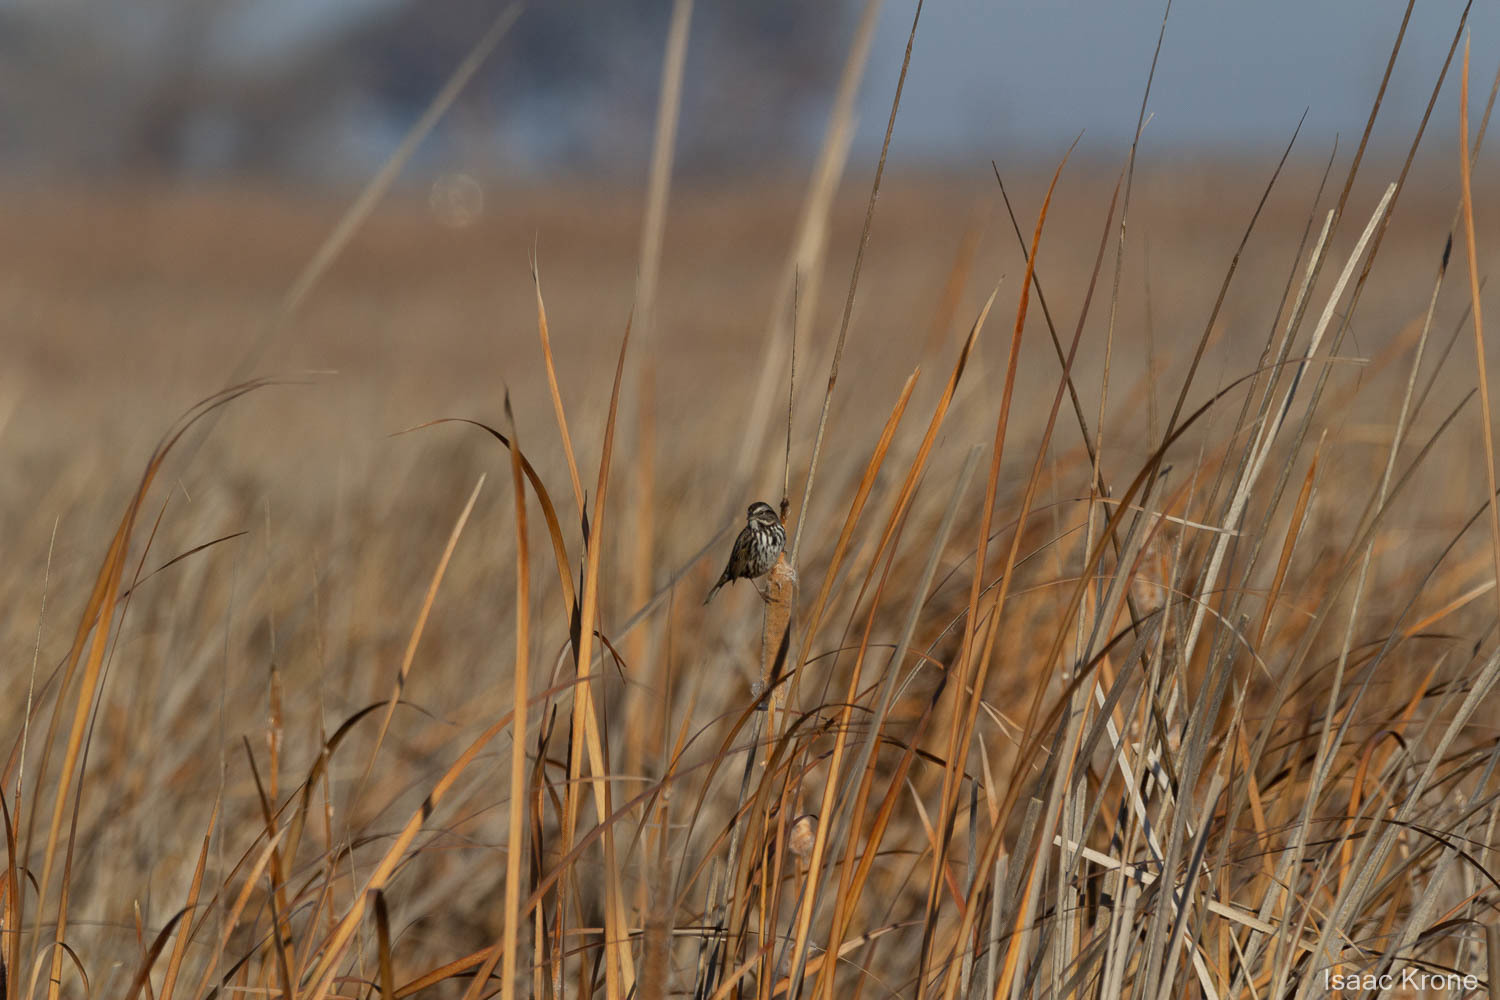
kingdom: Animalia
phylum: Chordata
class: Aves
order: Passeriformes
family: Passerellidae
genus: Melospiza
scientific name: Melospiza melodia
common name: Song sparrow
